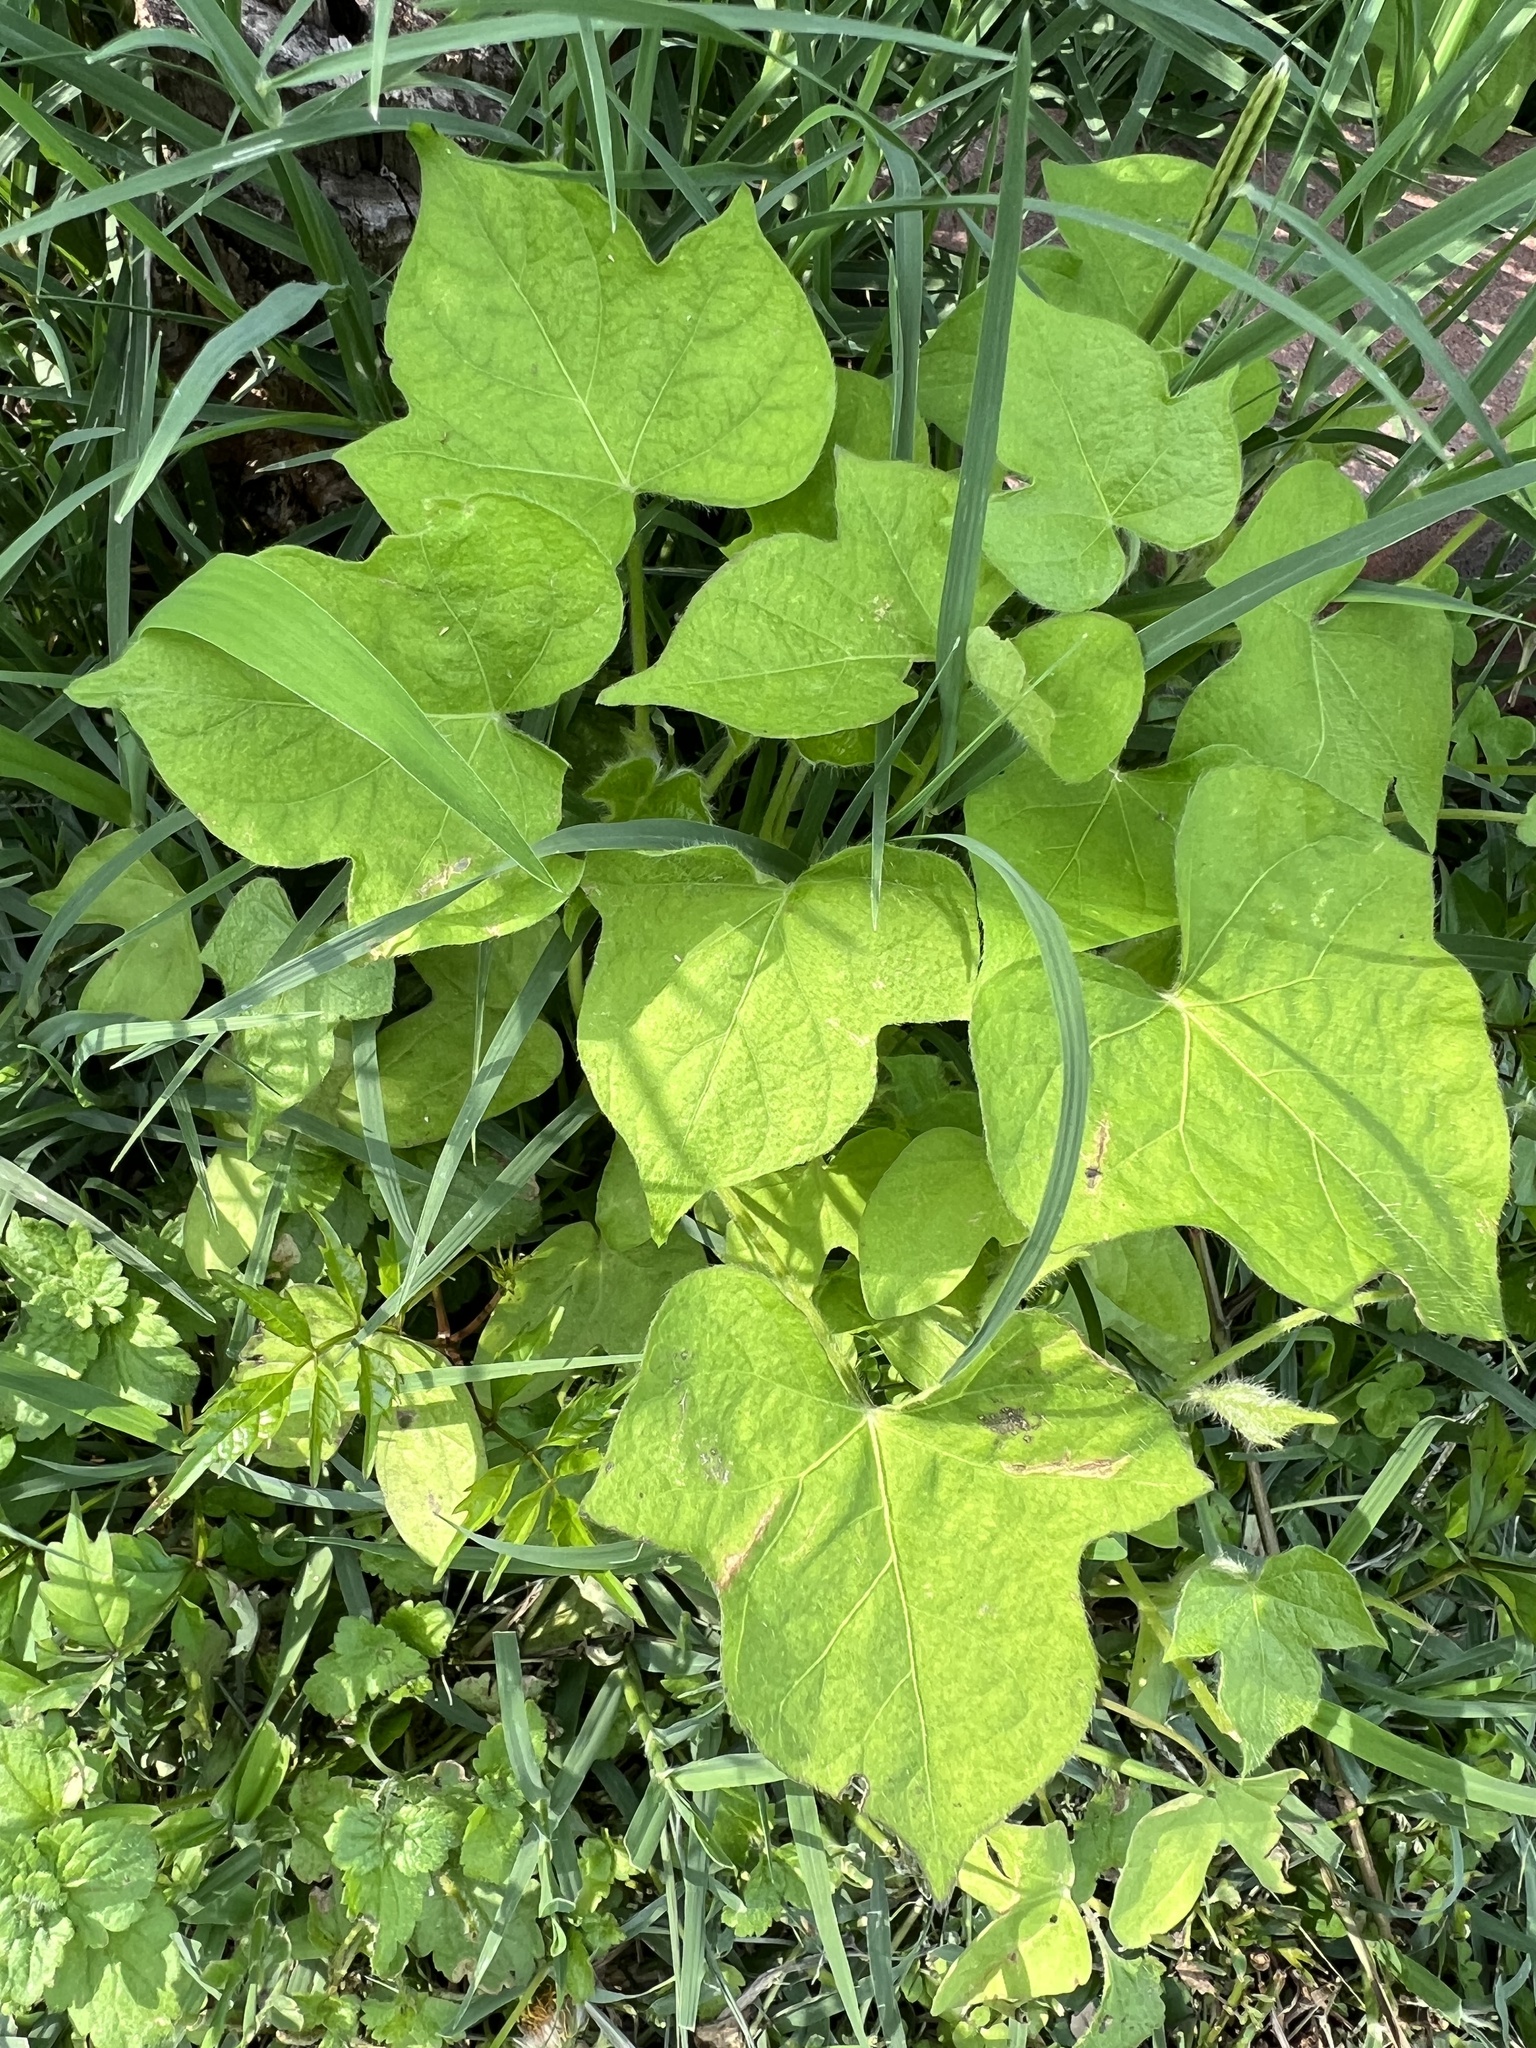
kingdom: Plantae
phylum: Tracheophyta
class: Magnoliopsida
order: Solanales
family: Convolvulaceae
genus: Ipomoea
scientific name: Ipomoea hederacea
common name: Ivy-leaved morning-glory
